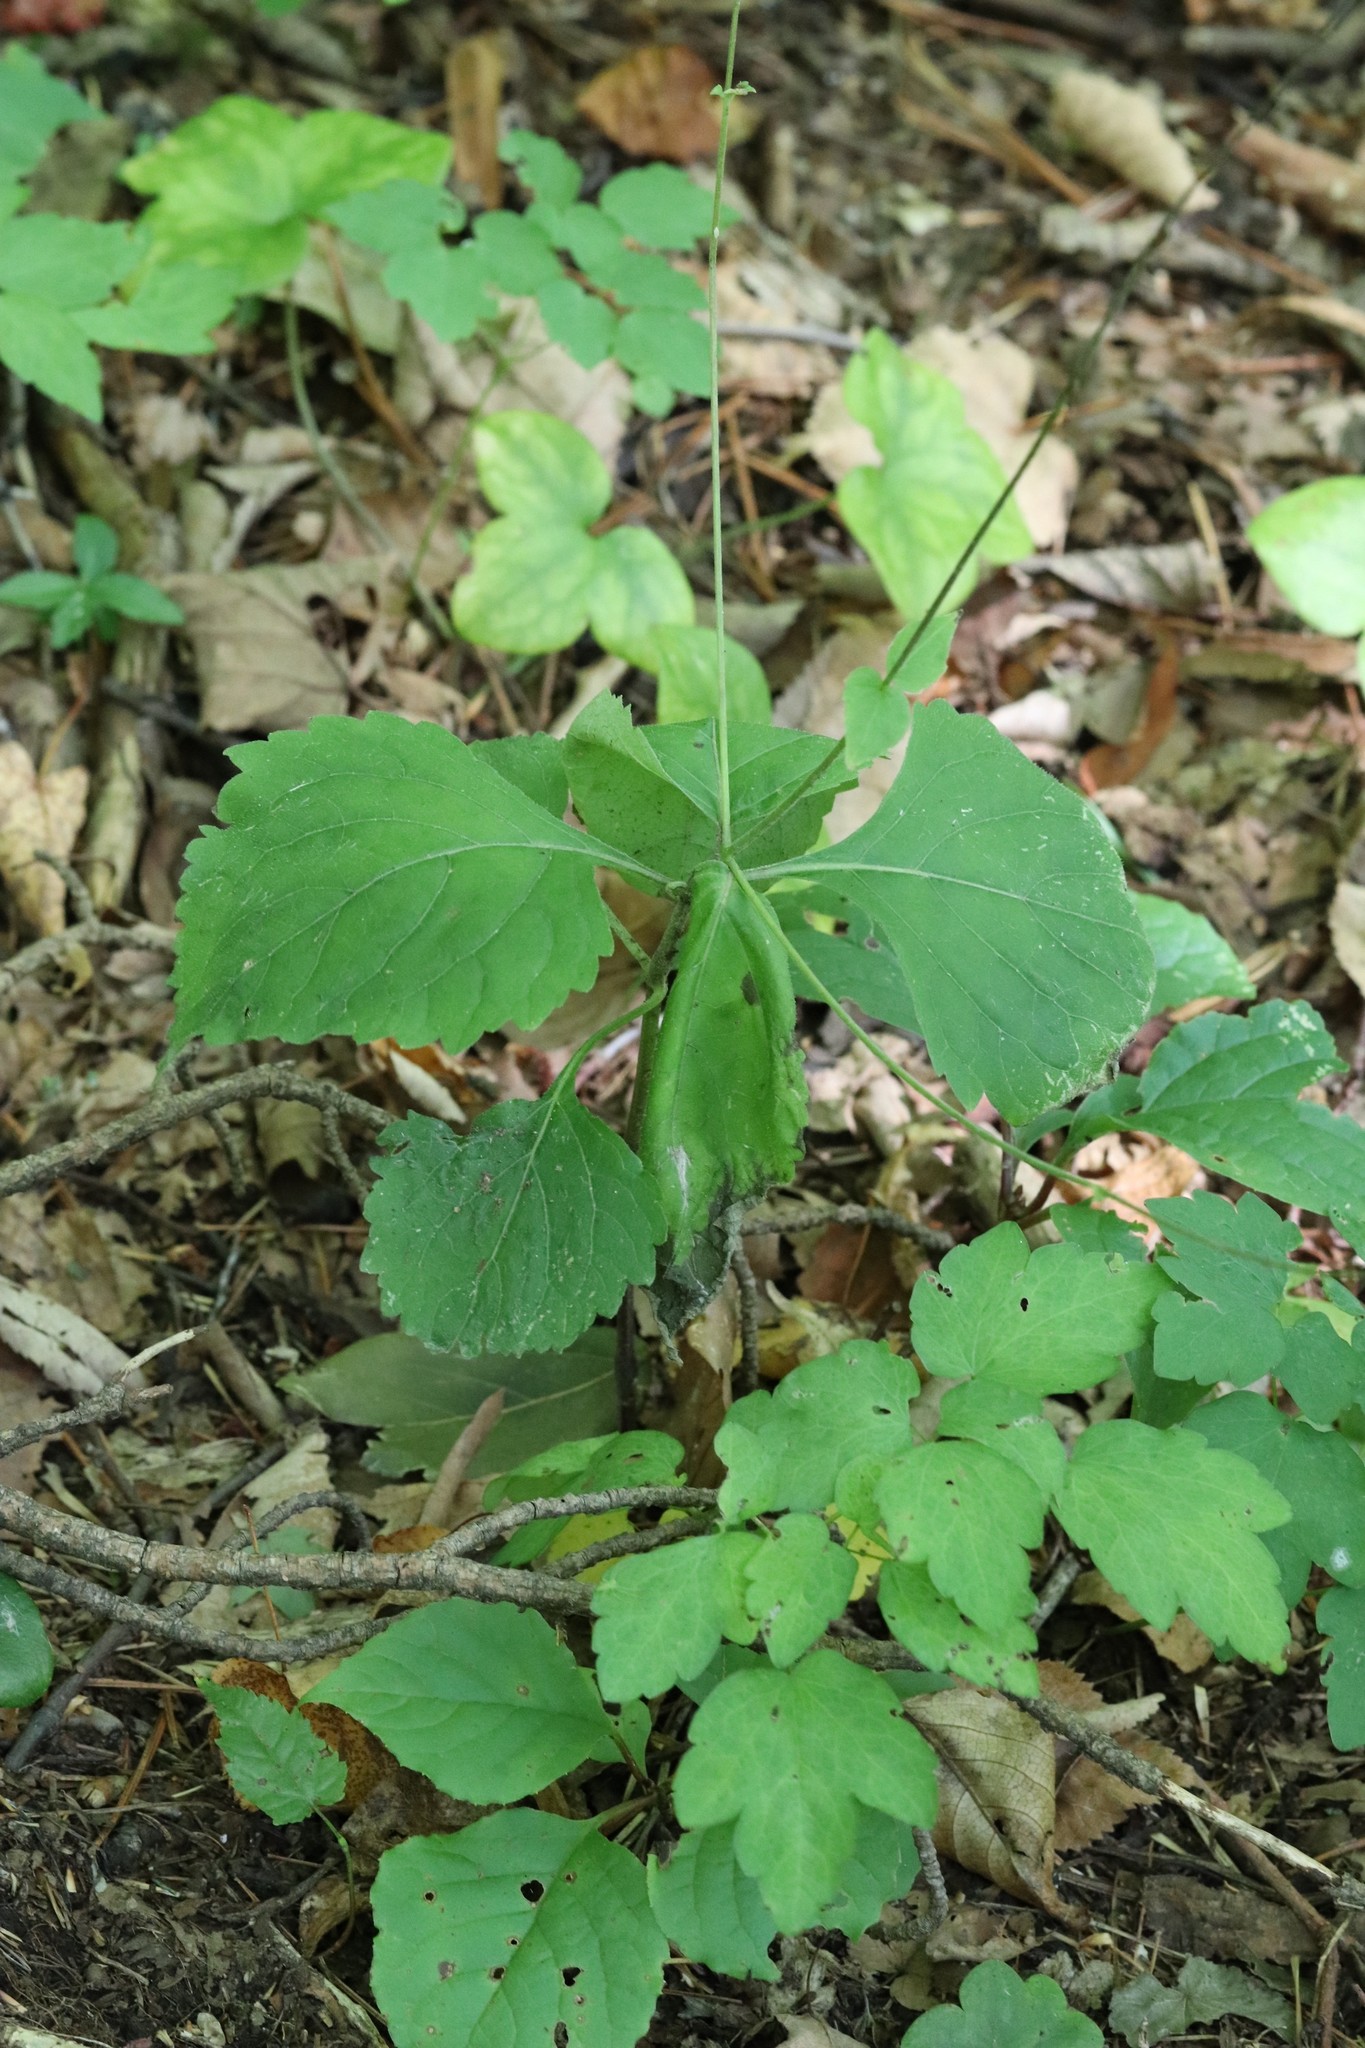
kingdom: Plantae
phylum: Tracheophyta
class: Magnoliopsida
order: Lamiales
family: Phrymaceae
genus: Phryma
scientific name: Phryma nana
